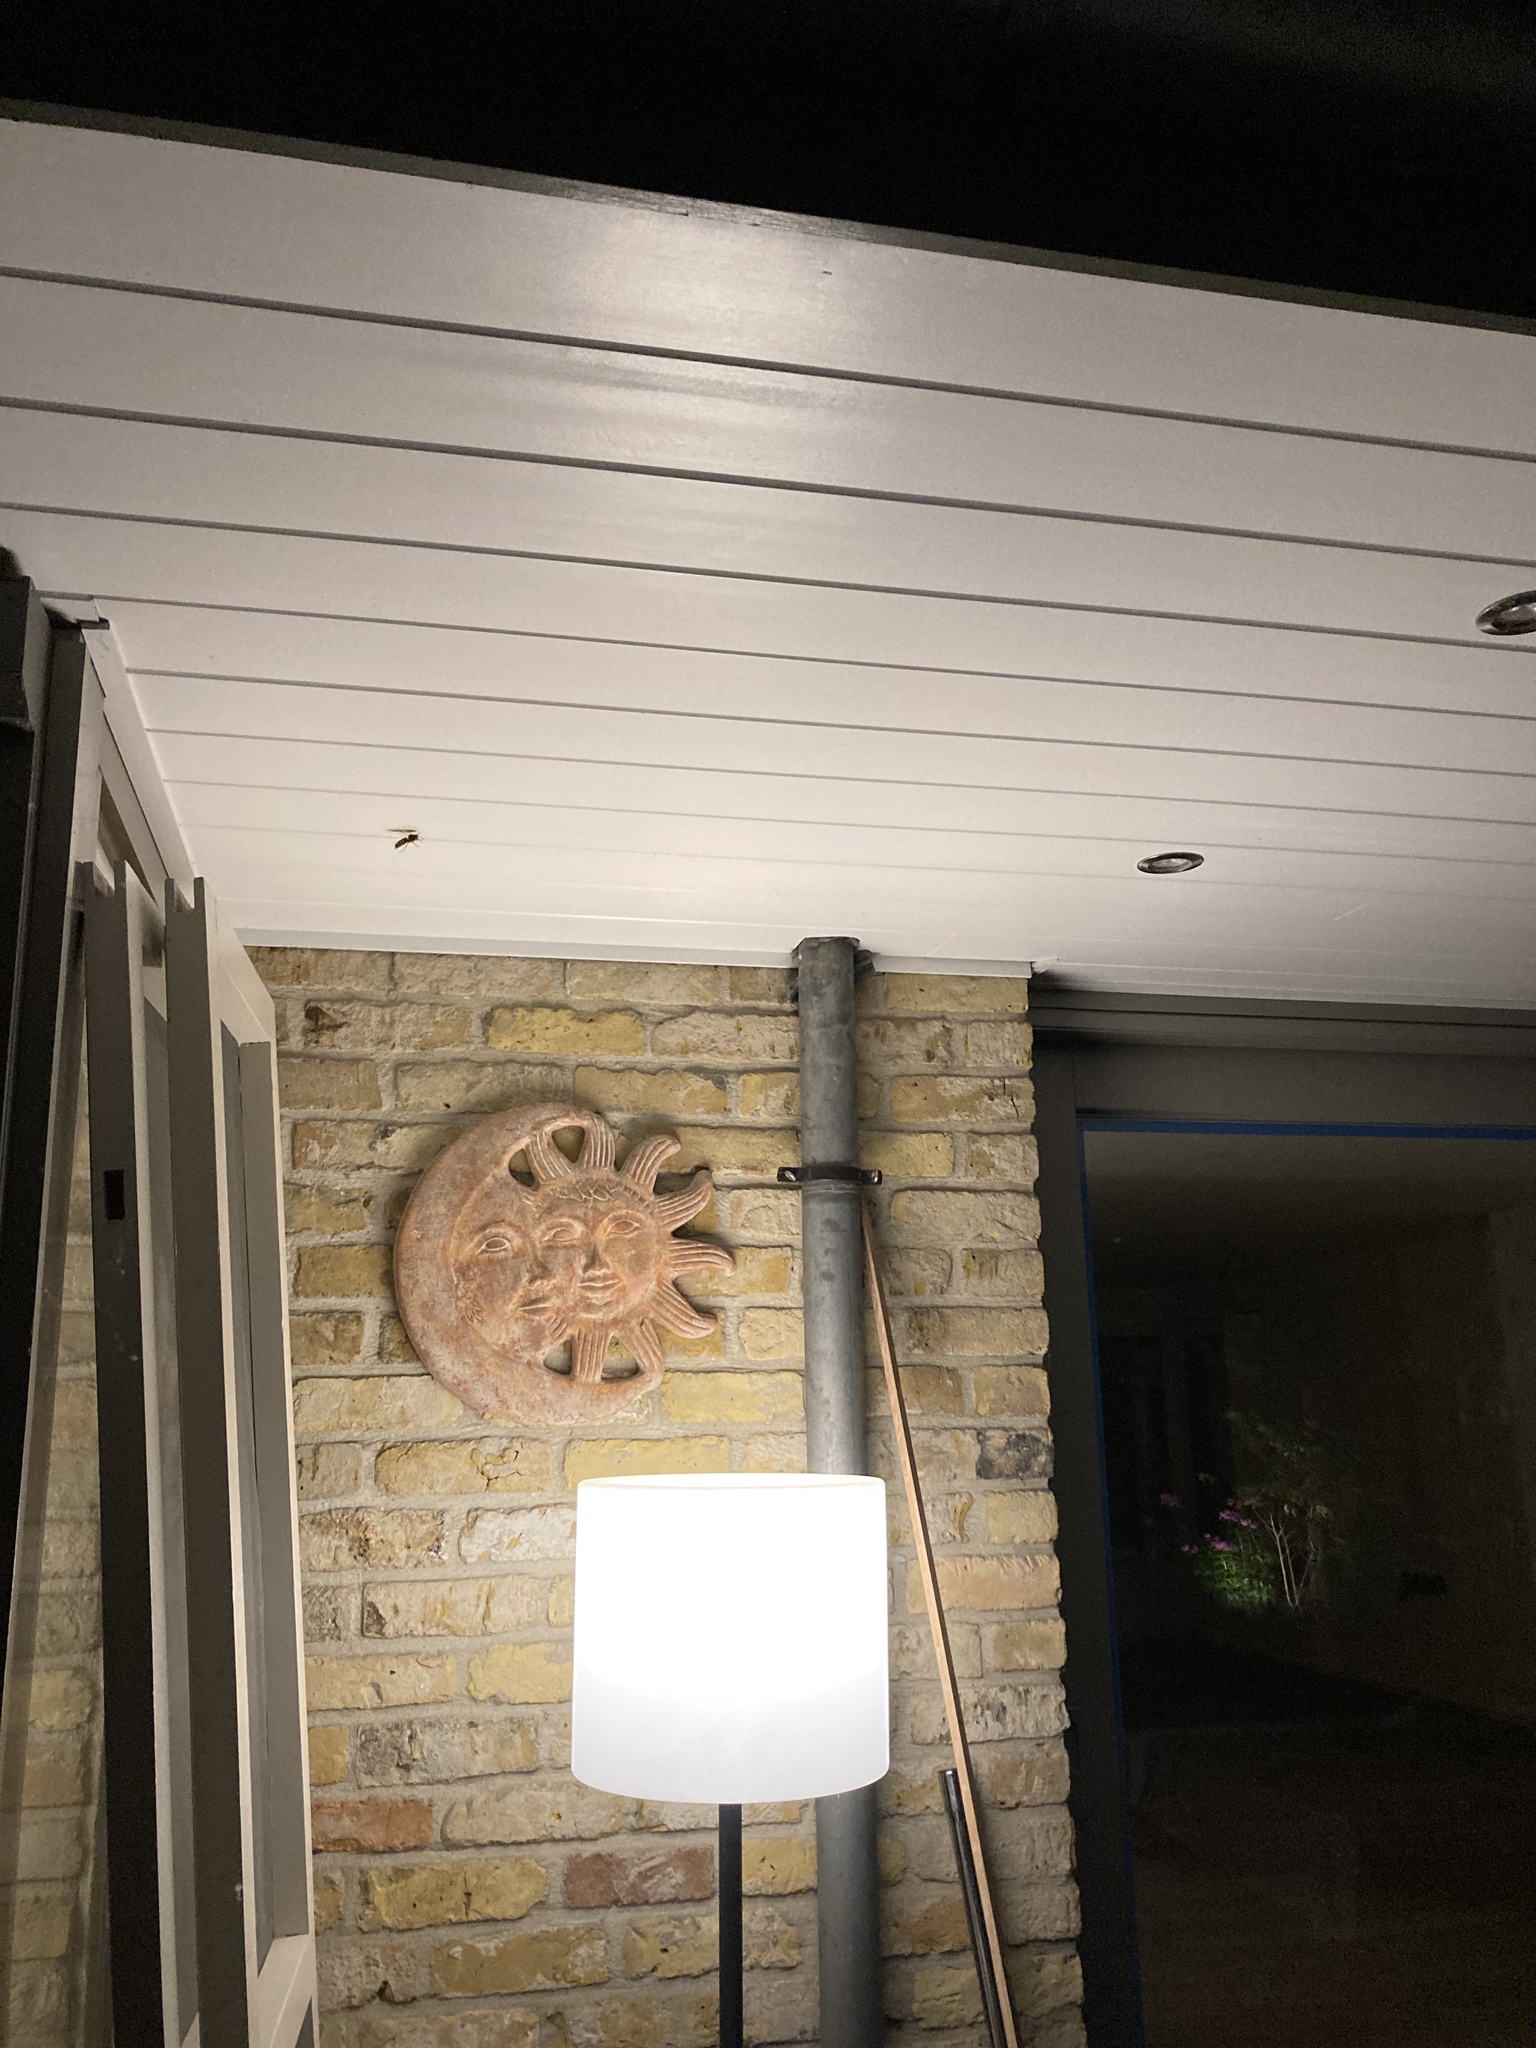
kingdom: Animalia
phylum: Arthropoda
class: Insecta
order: Hymenoptera
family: Vespidae
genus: Vespa
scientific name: Vespa crabro
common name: Hornet
